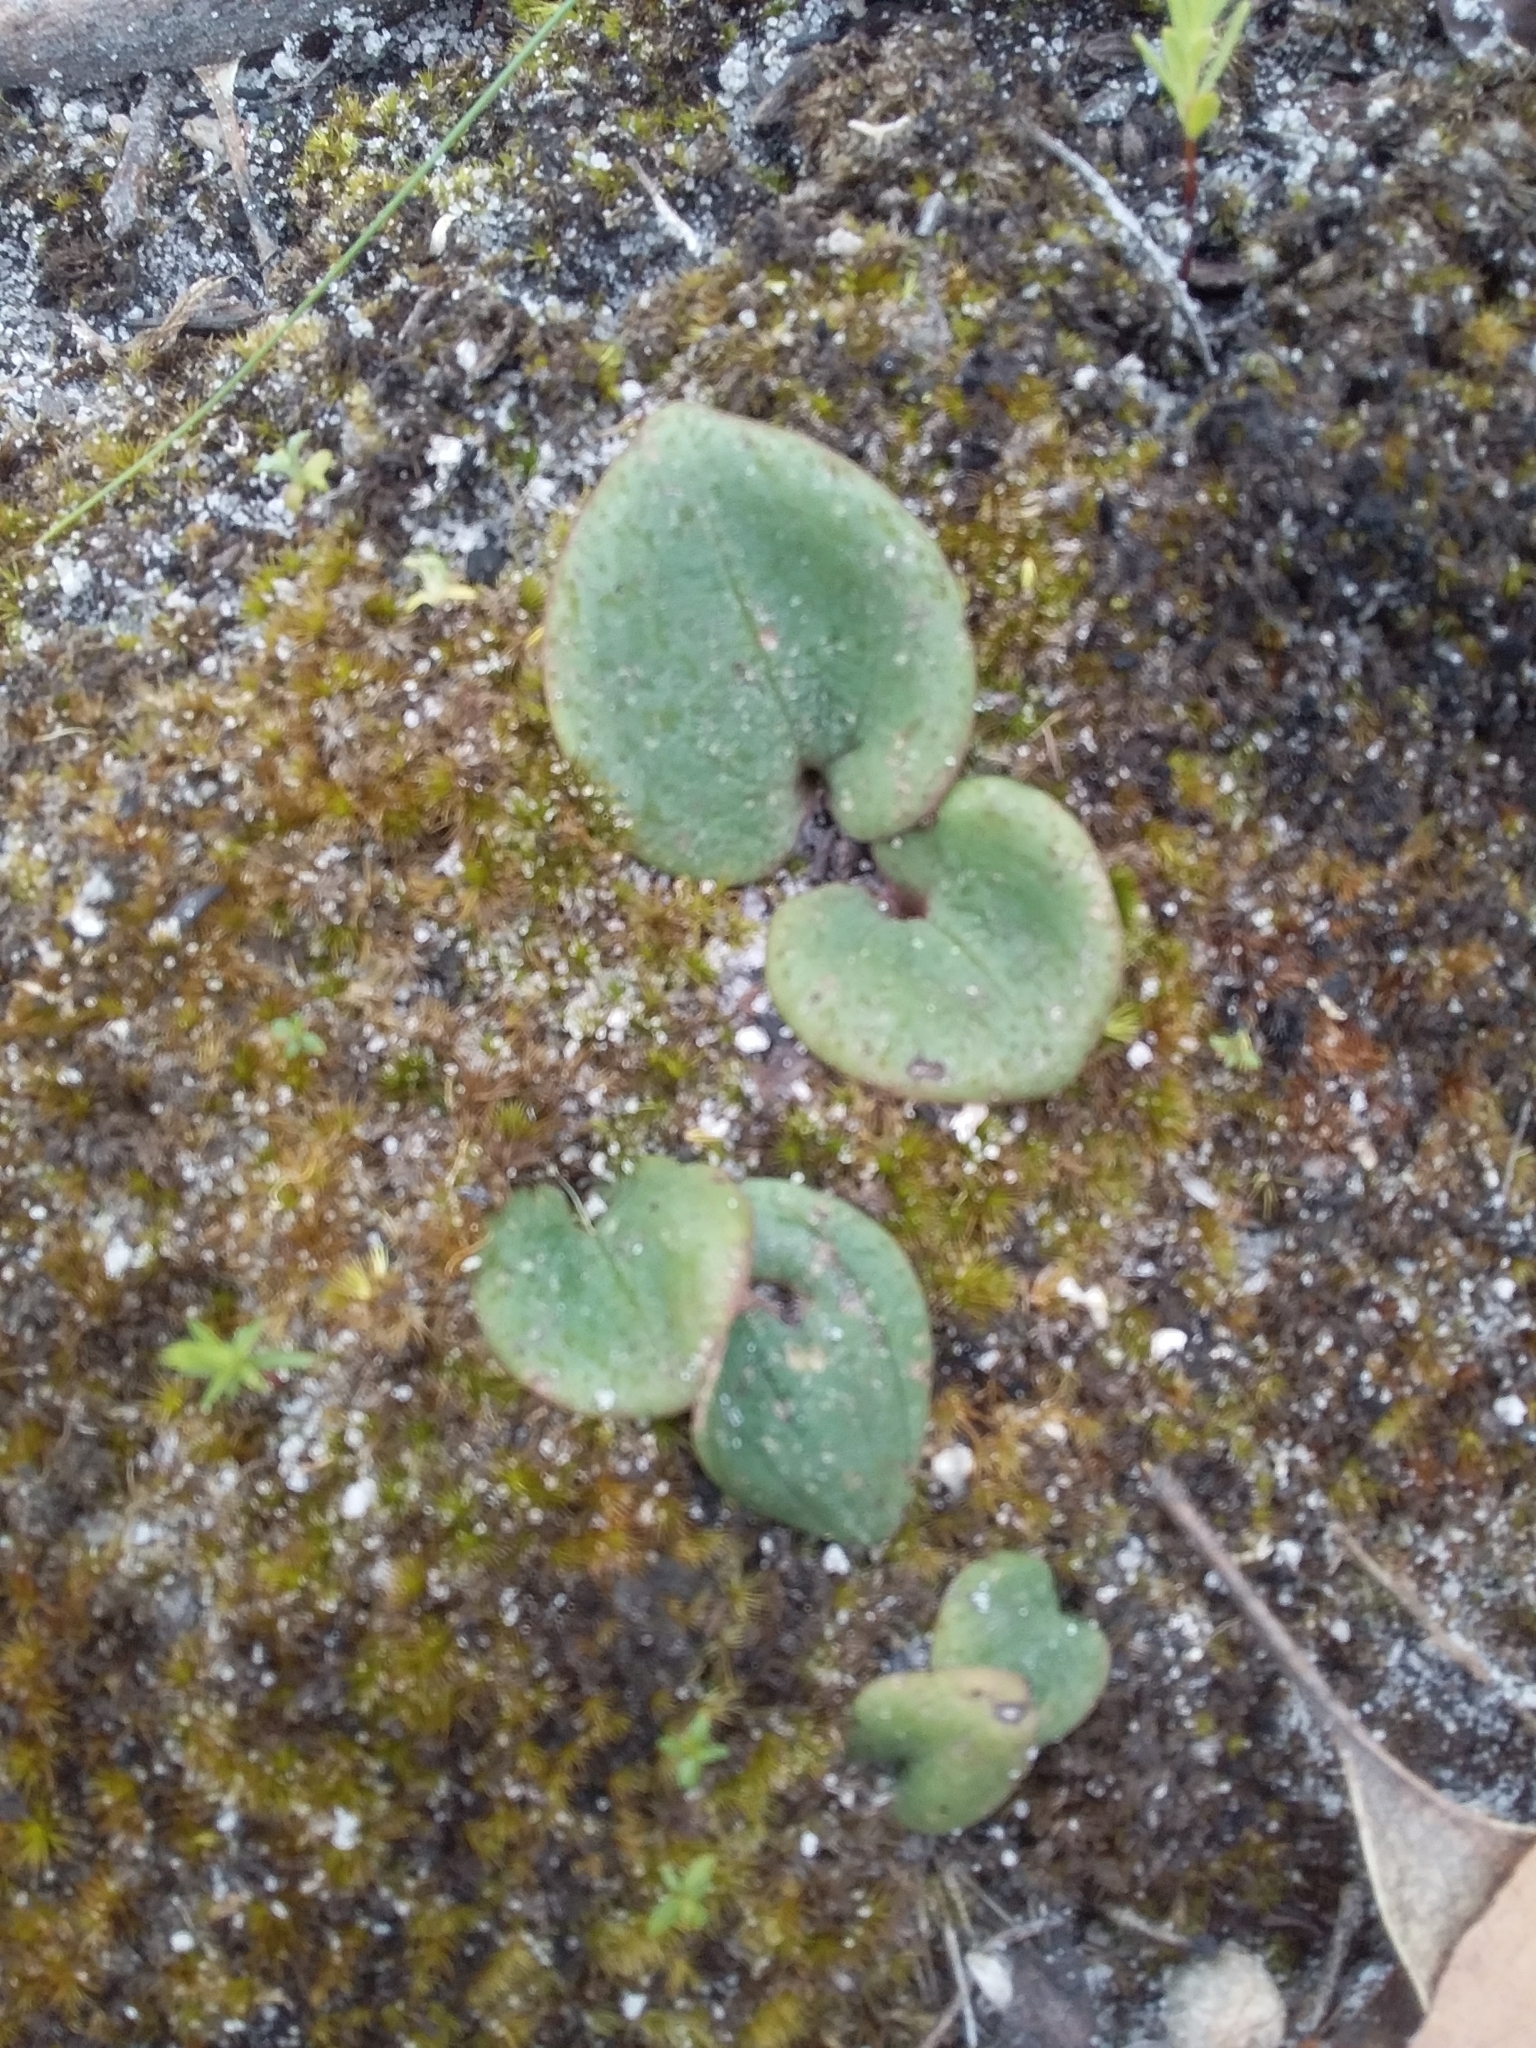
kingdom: Plantae
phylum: Tracheophyta
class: Liliopsida
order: Asparagales
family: Orchidaceae
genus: Pyrorchis
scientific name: Pyrorchis nigricans
